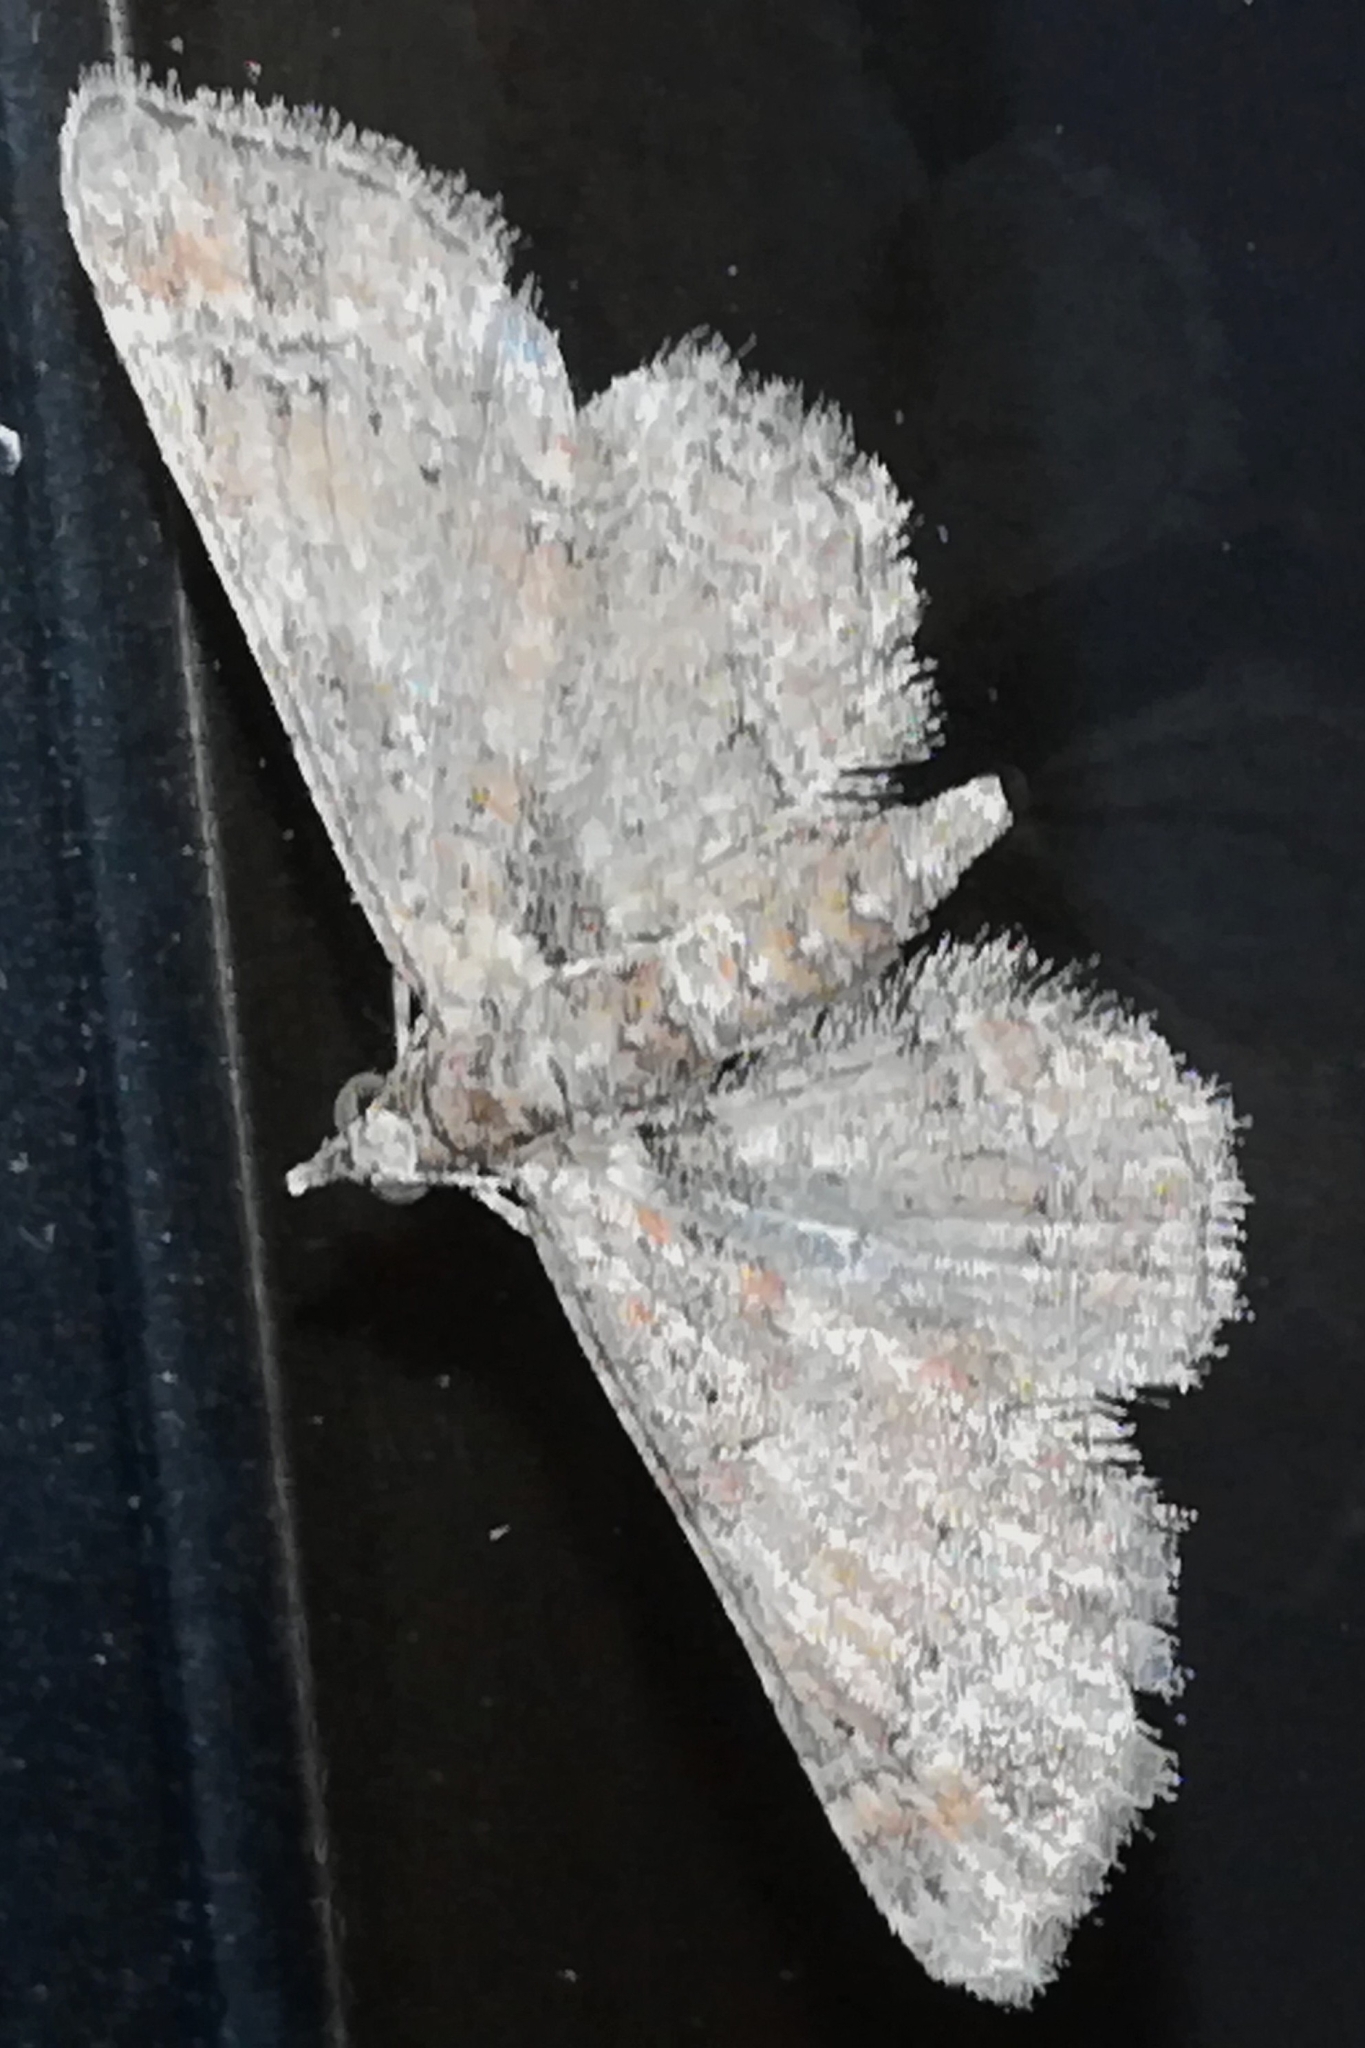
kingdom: Animalia
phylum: Arthropoda
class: Insecta
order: Lepidoptera
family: Geometridae
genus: Gymnoscelis
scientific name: Gymnoscelis rufifasciata
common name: Double-striped pug
